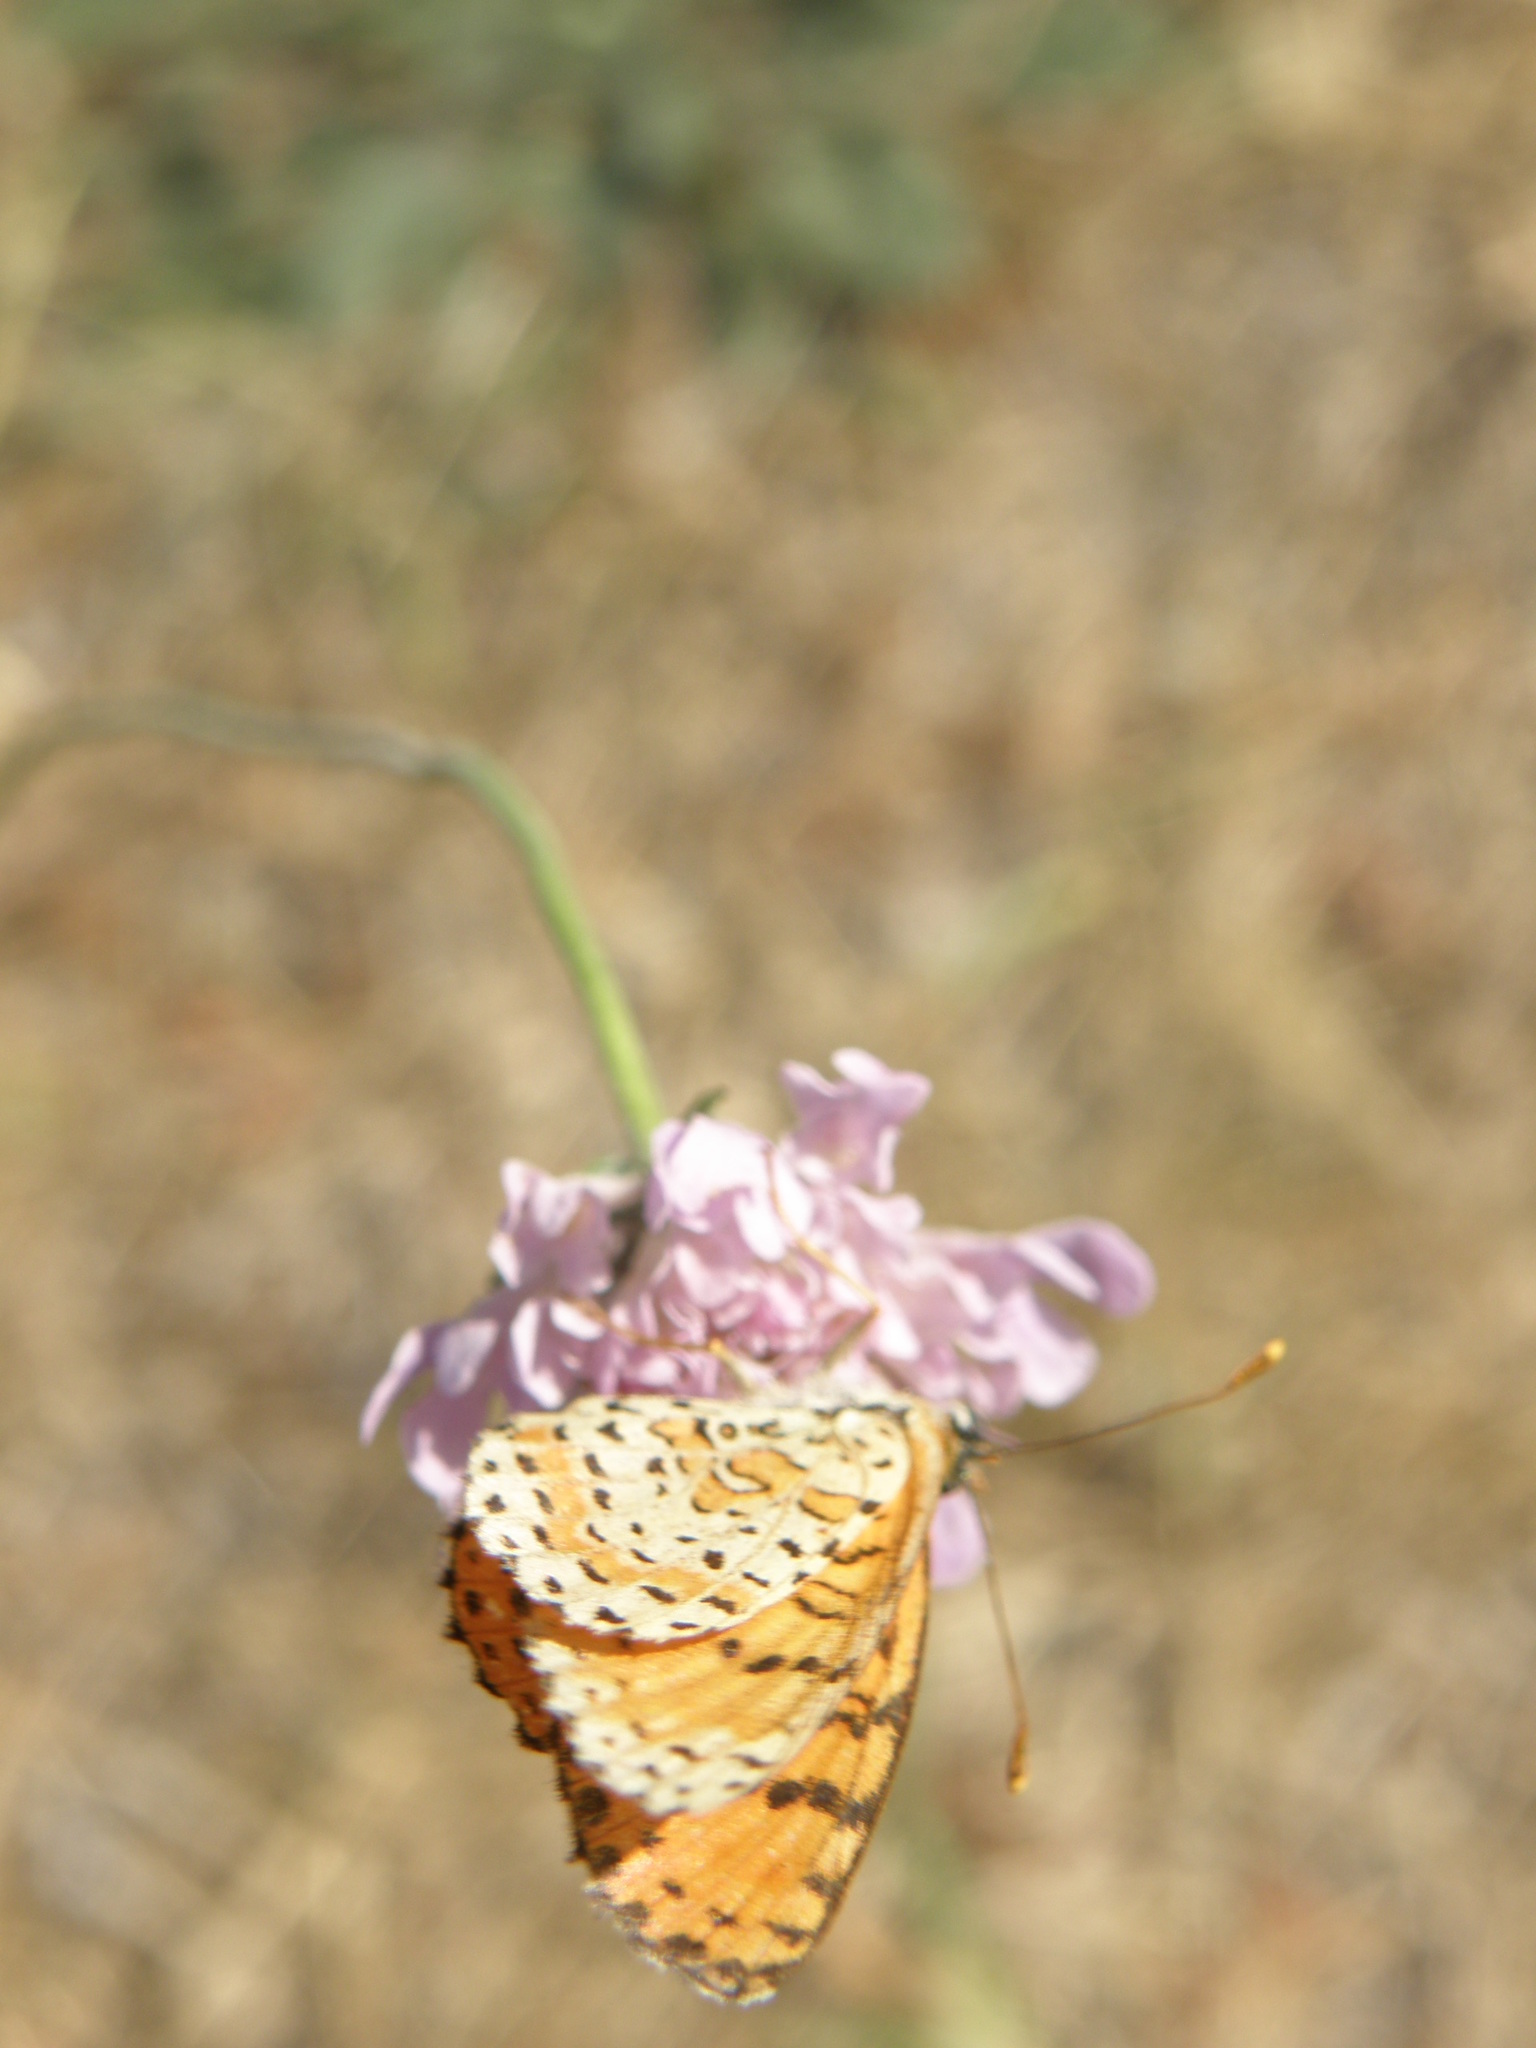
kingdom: Animalia
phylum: Arthropoda
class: Insecta
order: Lepidoptera
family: Nymphalidae
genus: Melitaea
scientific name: Melitaea didyma
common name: Spotted fritillary
